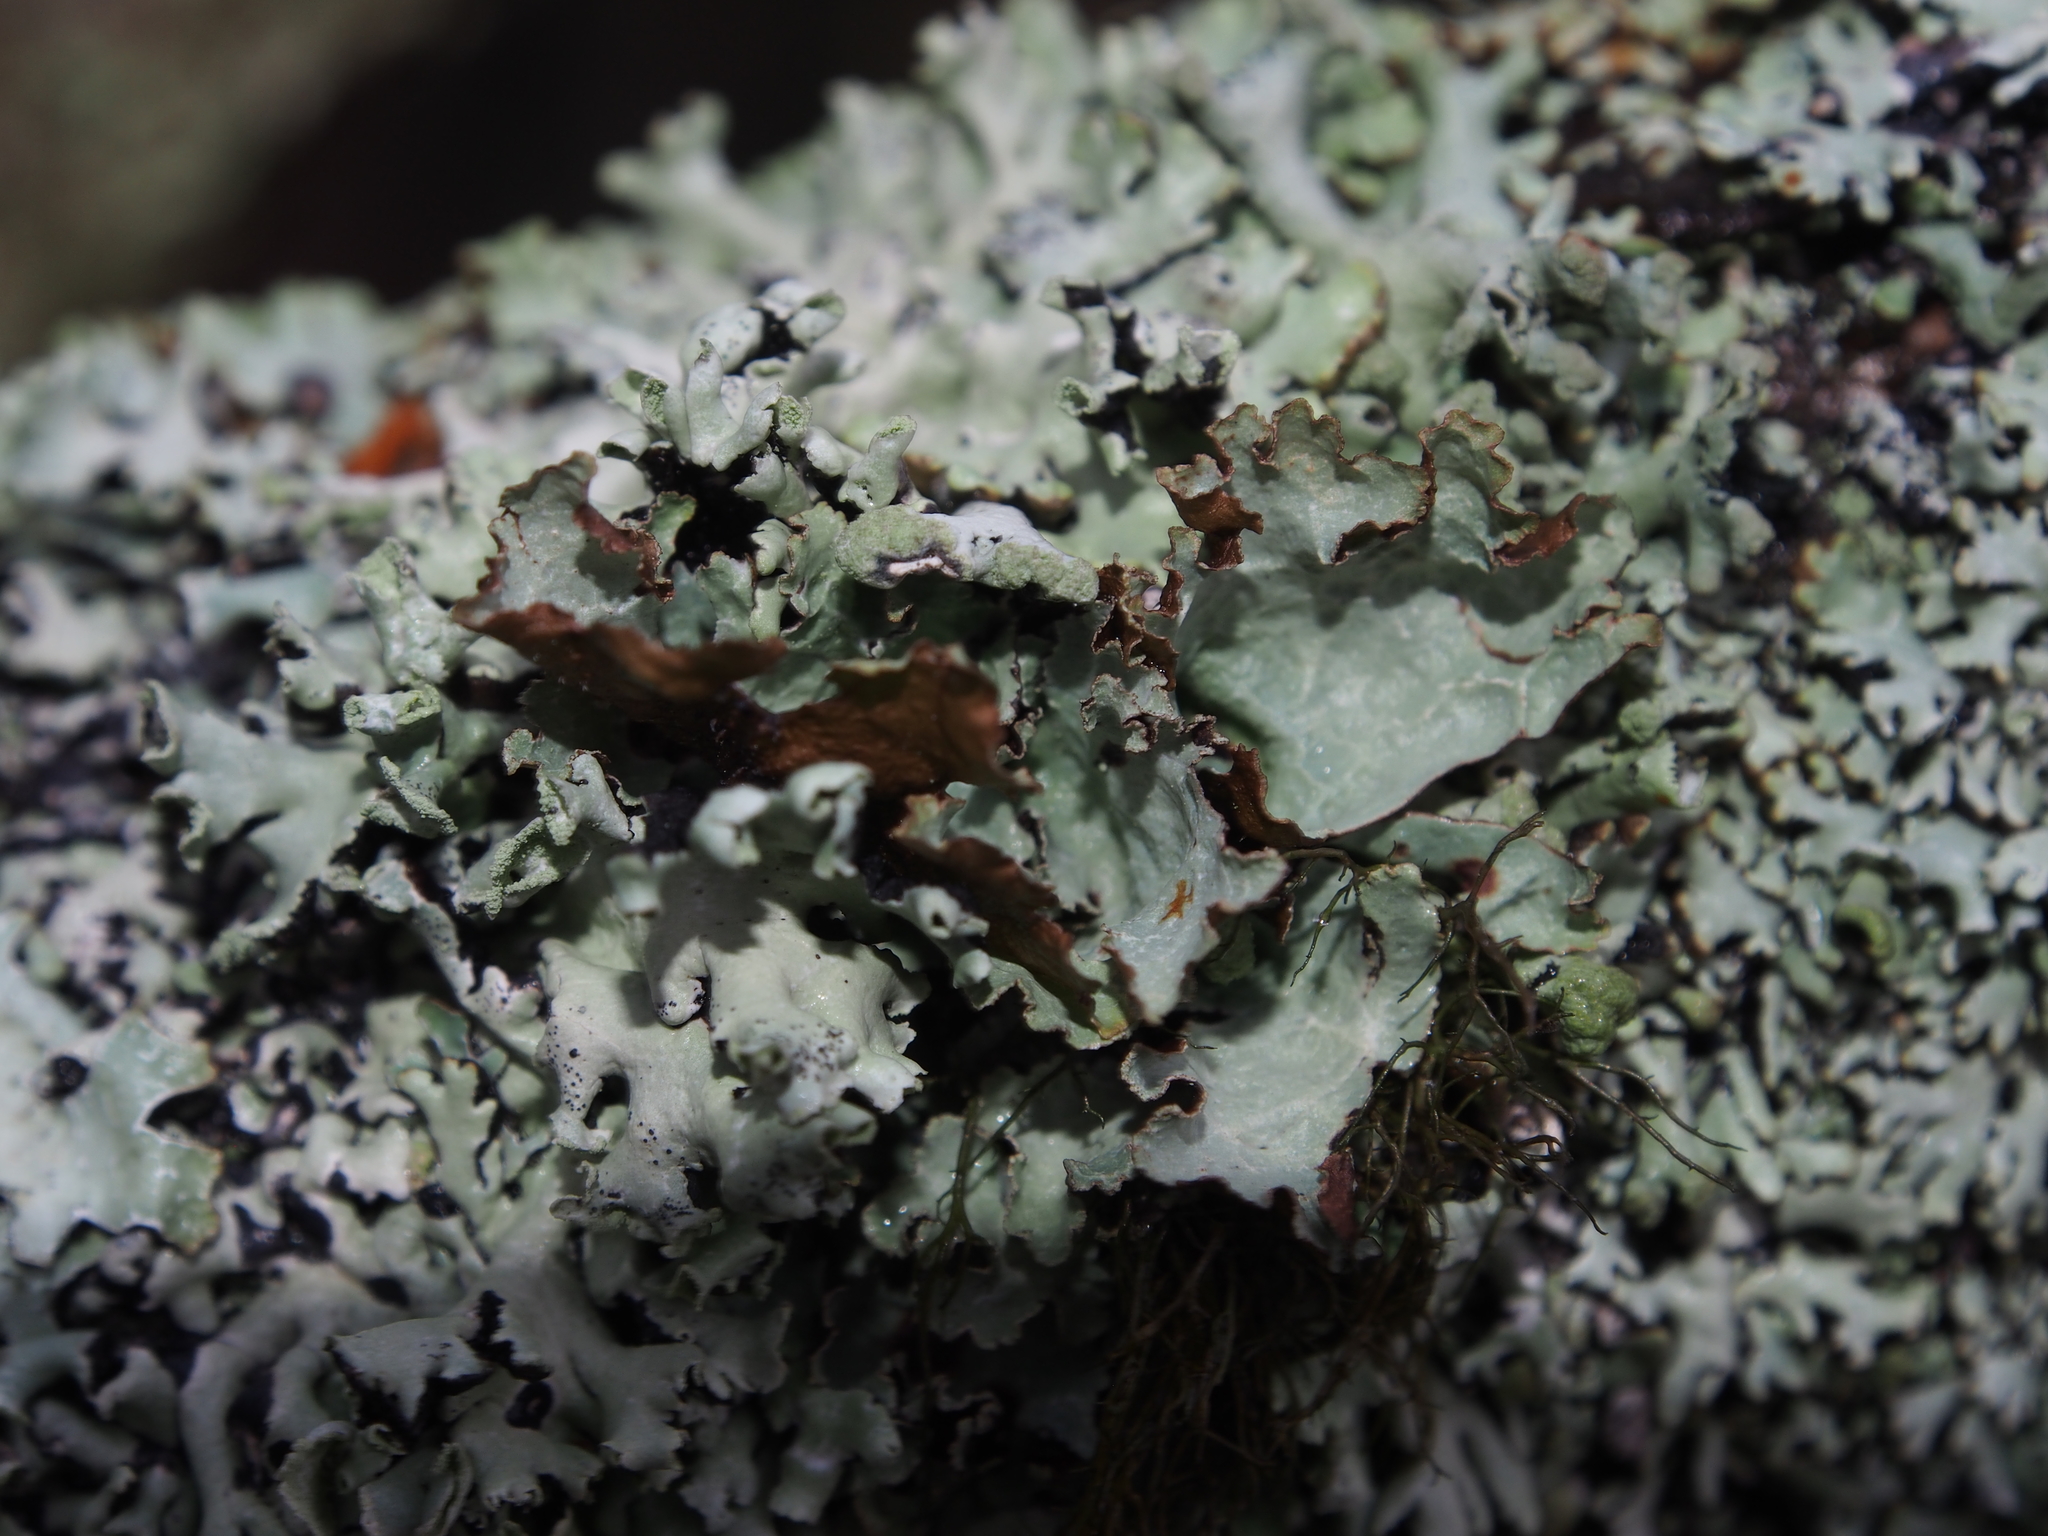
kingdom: Fungi
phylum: Ascomycota
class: Lecanoromycetes
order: Lecanorales
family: Parmeliaceae
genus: Platismatia
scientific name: Platismatia glauca
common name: Varied rag lichen
